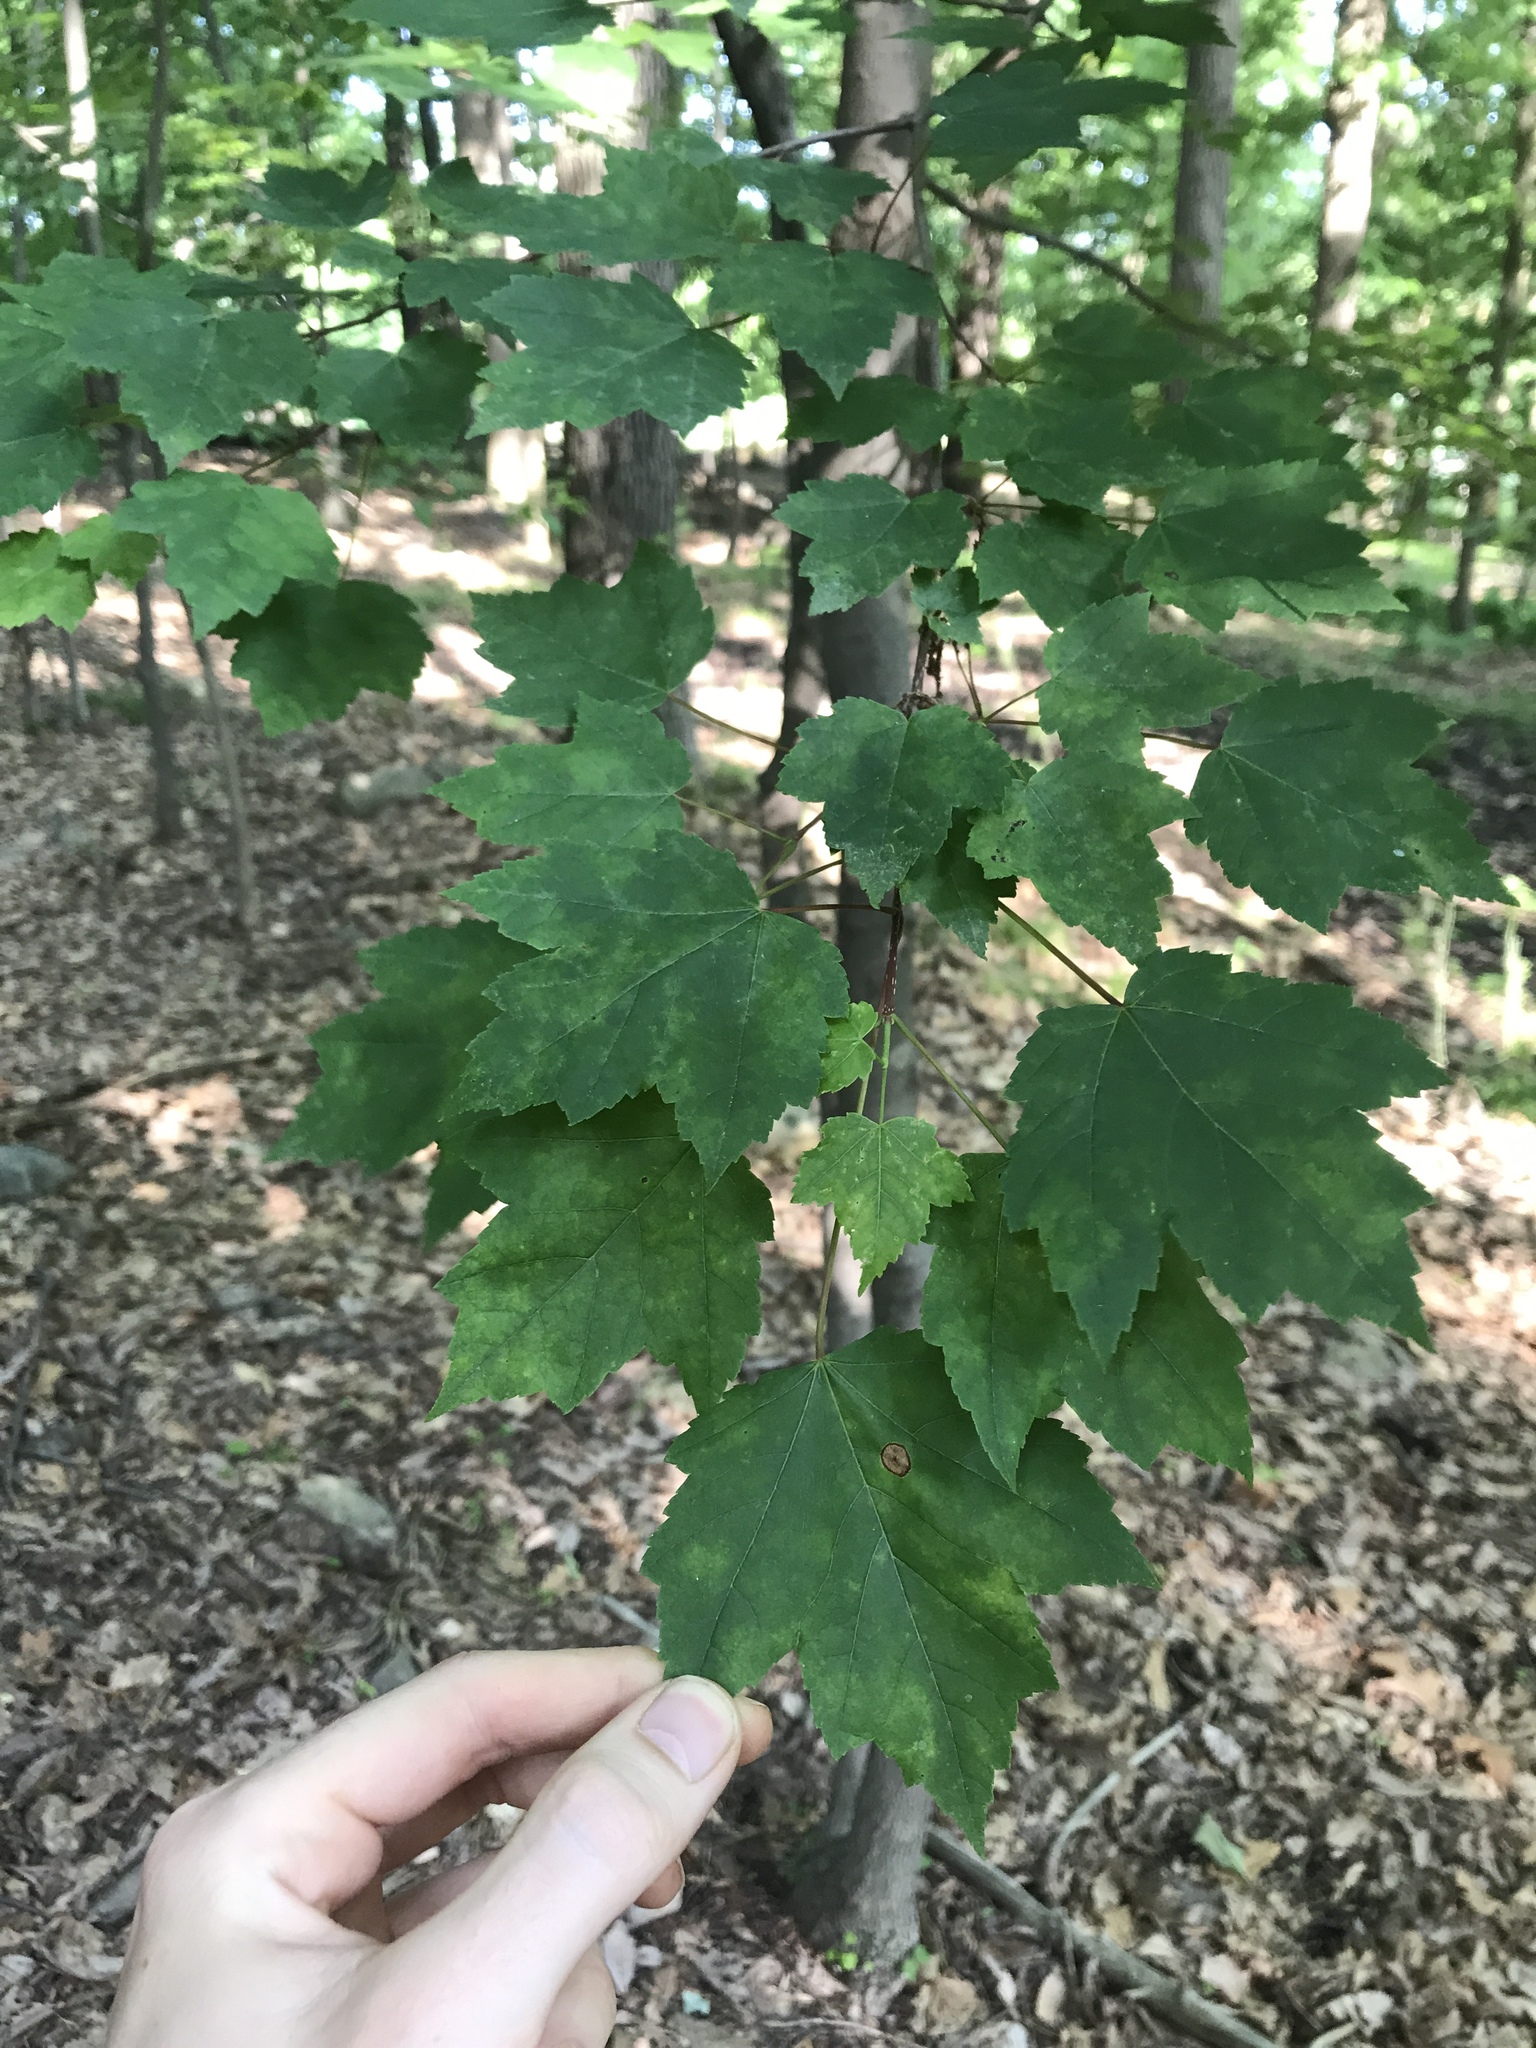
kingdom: Plantae
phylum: Tracheophyta
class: Magnoliopsida
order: Sapindales
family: Sapindaceae
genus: Acer
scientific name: Acer rubrum
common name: Red maple
